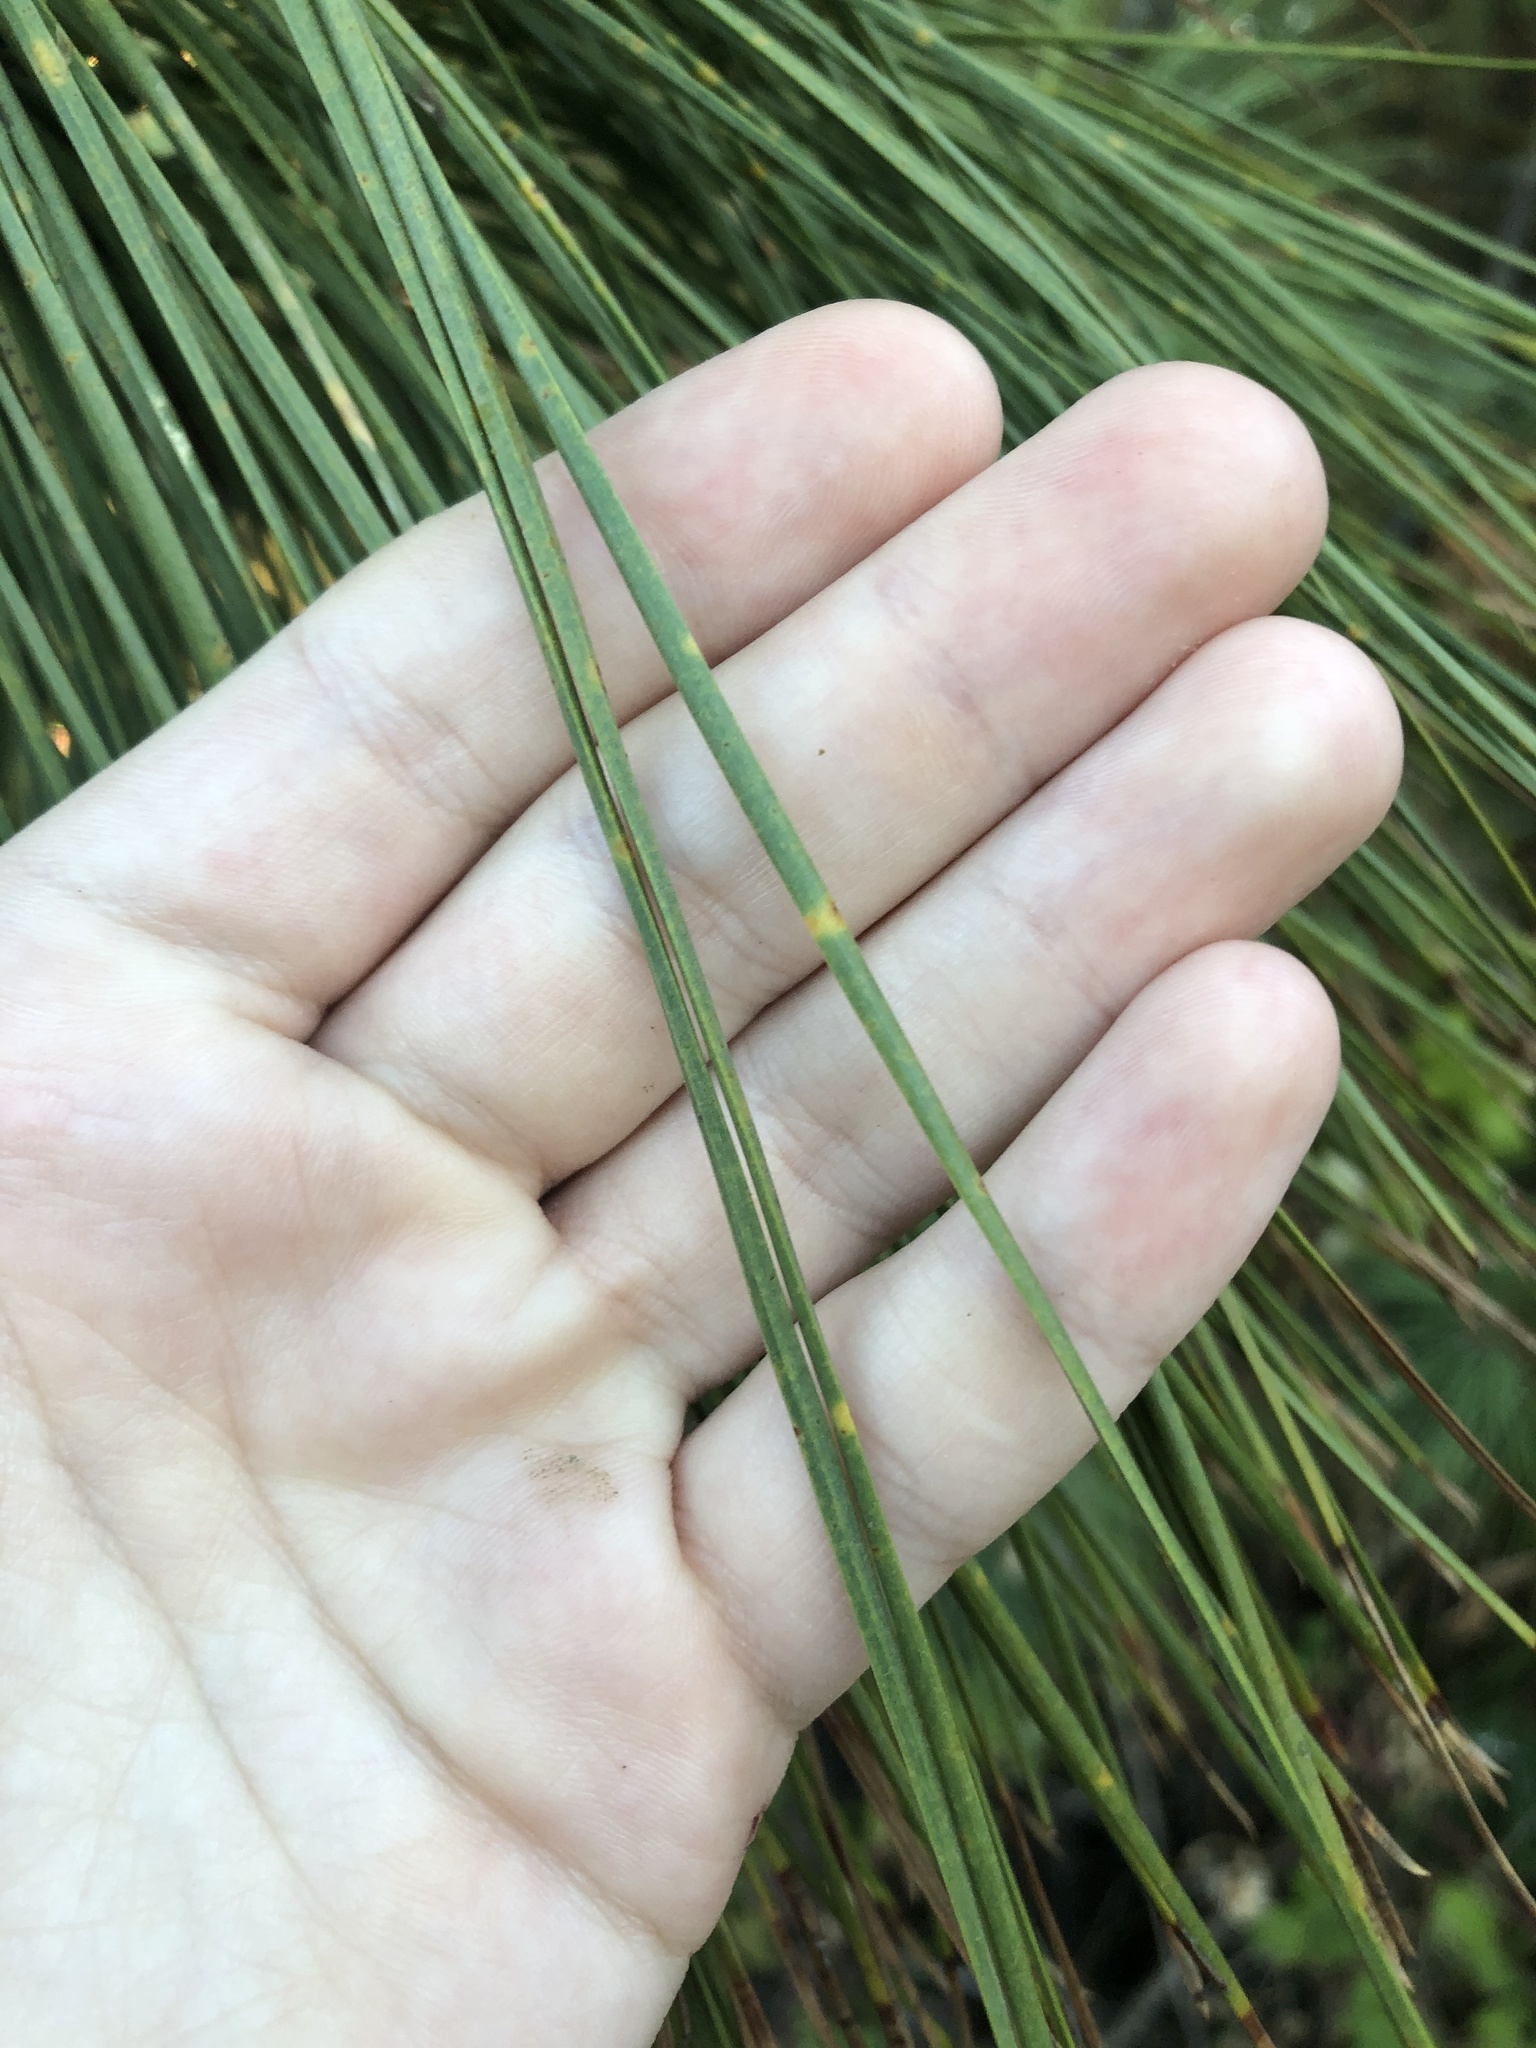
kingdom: Plantae
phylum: Tracheophyta
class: Pinopsida
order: Pinales
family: Pinaceae
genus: Pinus
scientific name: Pinus ponderosa
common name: Western yellow-pine
